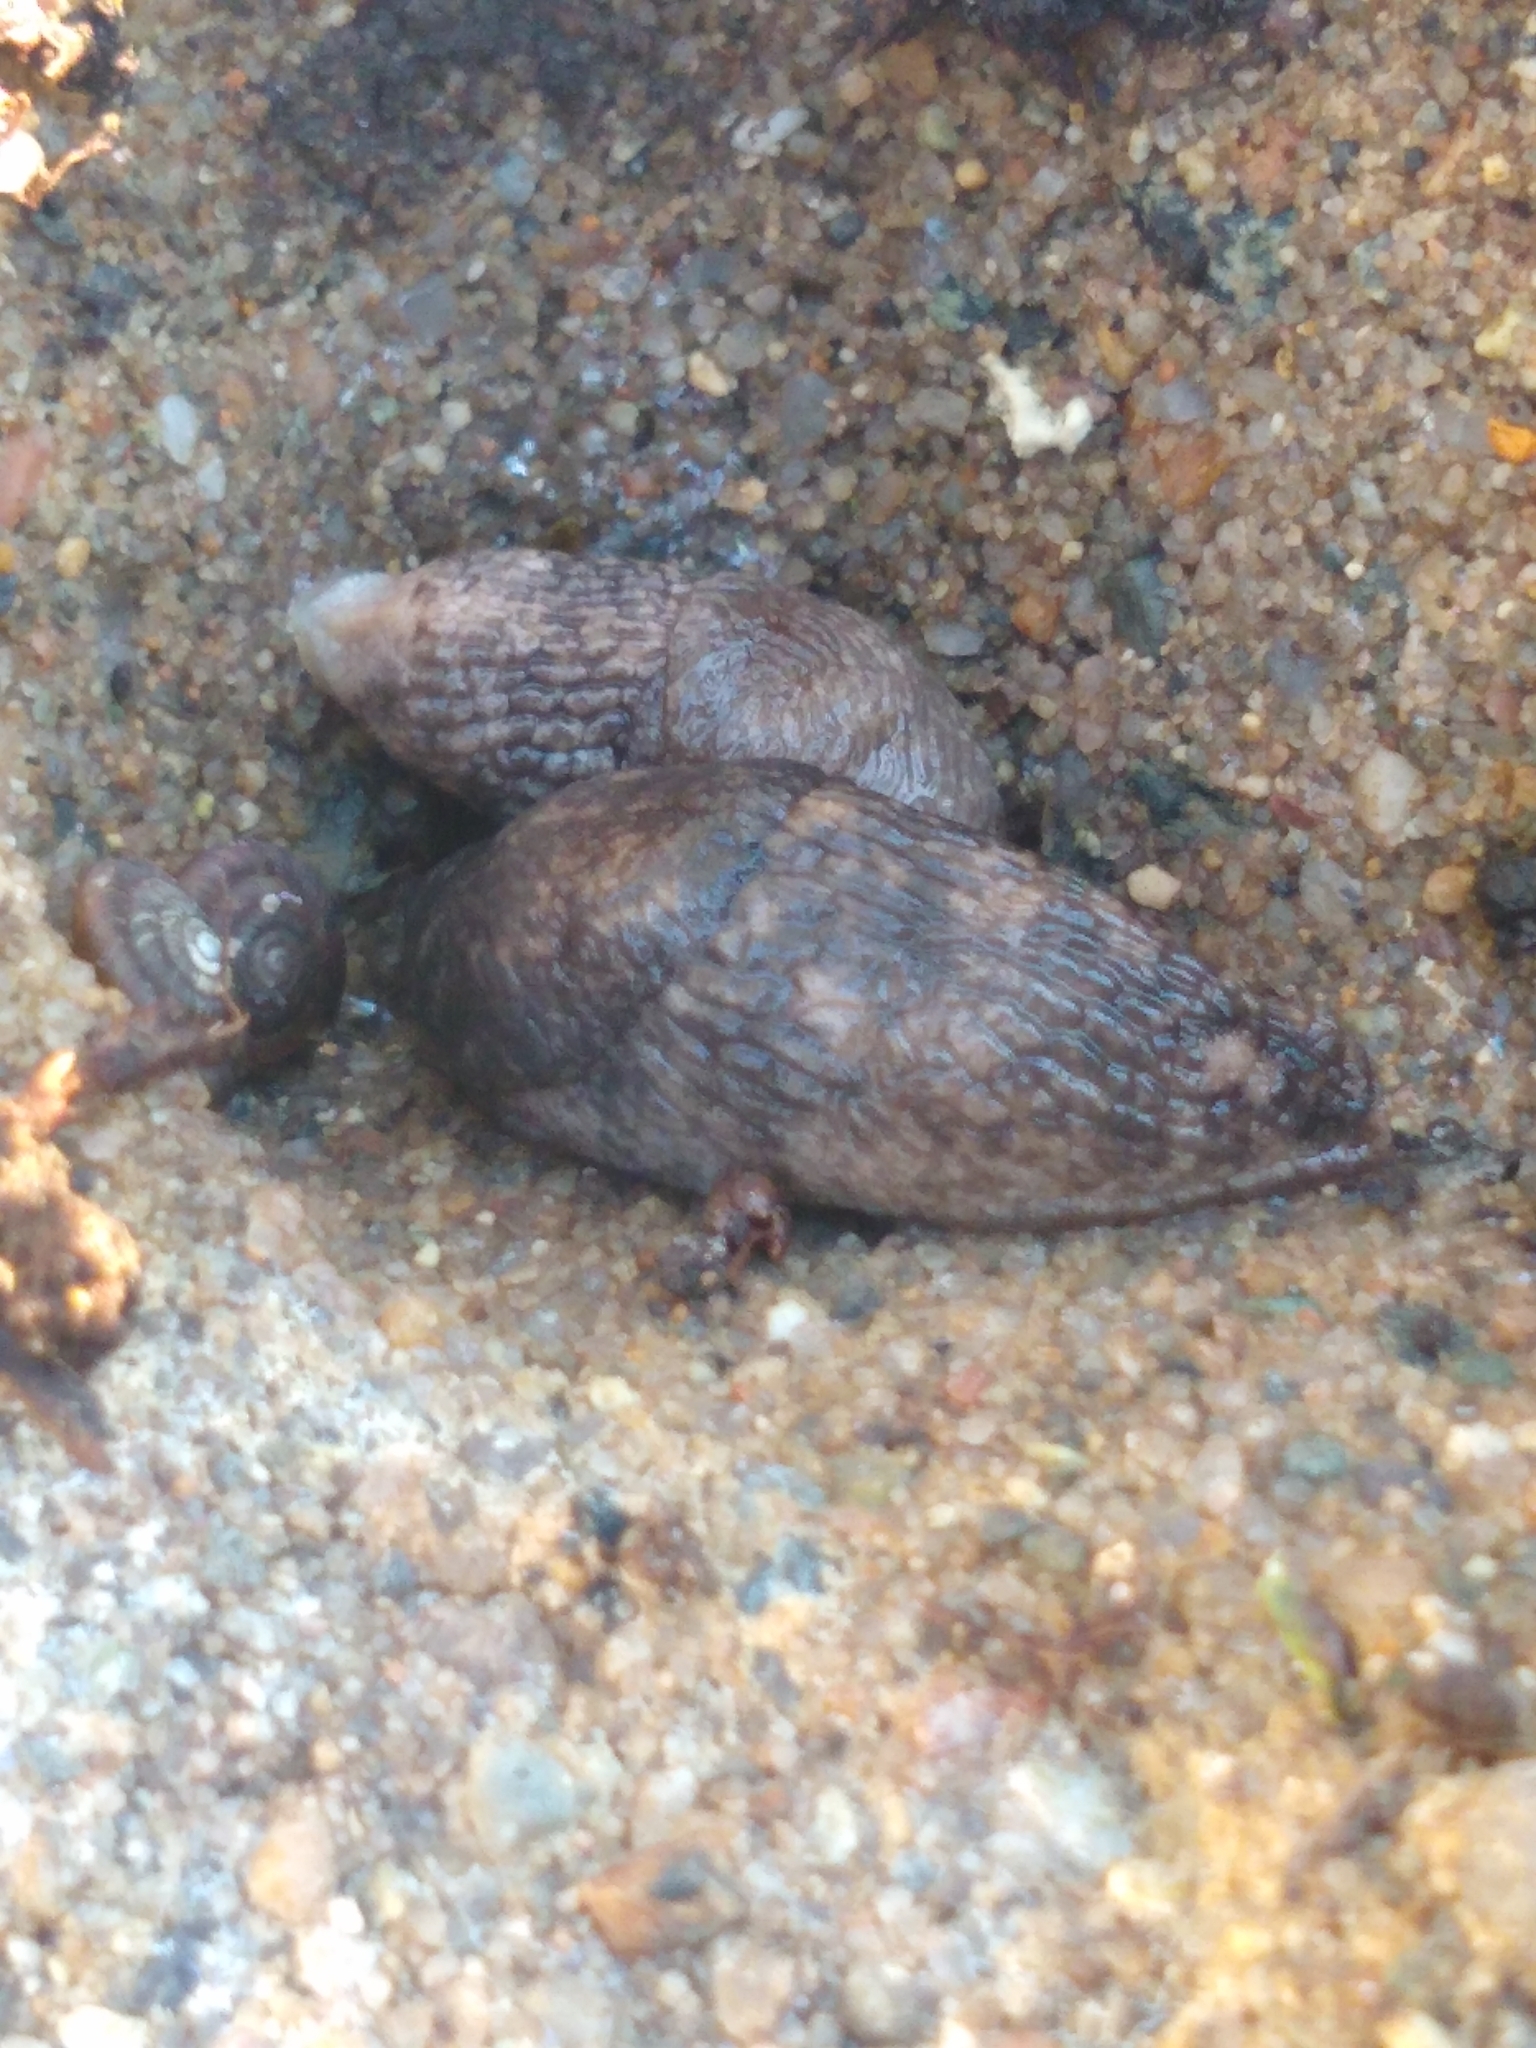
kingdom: Animalia
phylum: Mollusca
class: Gastropoda
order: Stylommatophora
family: Agriolimacidae
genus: Deroceras
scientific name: Deroceras reticulatum
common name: Gray field slug
